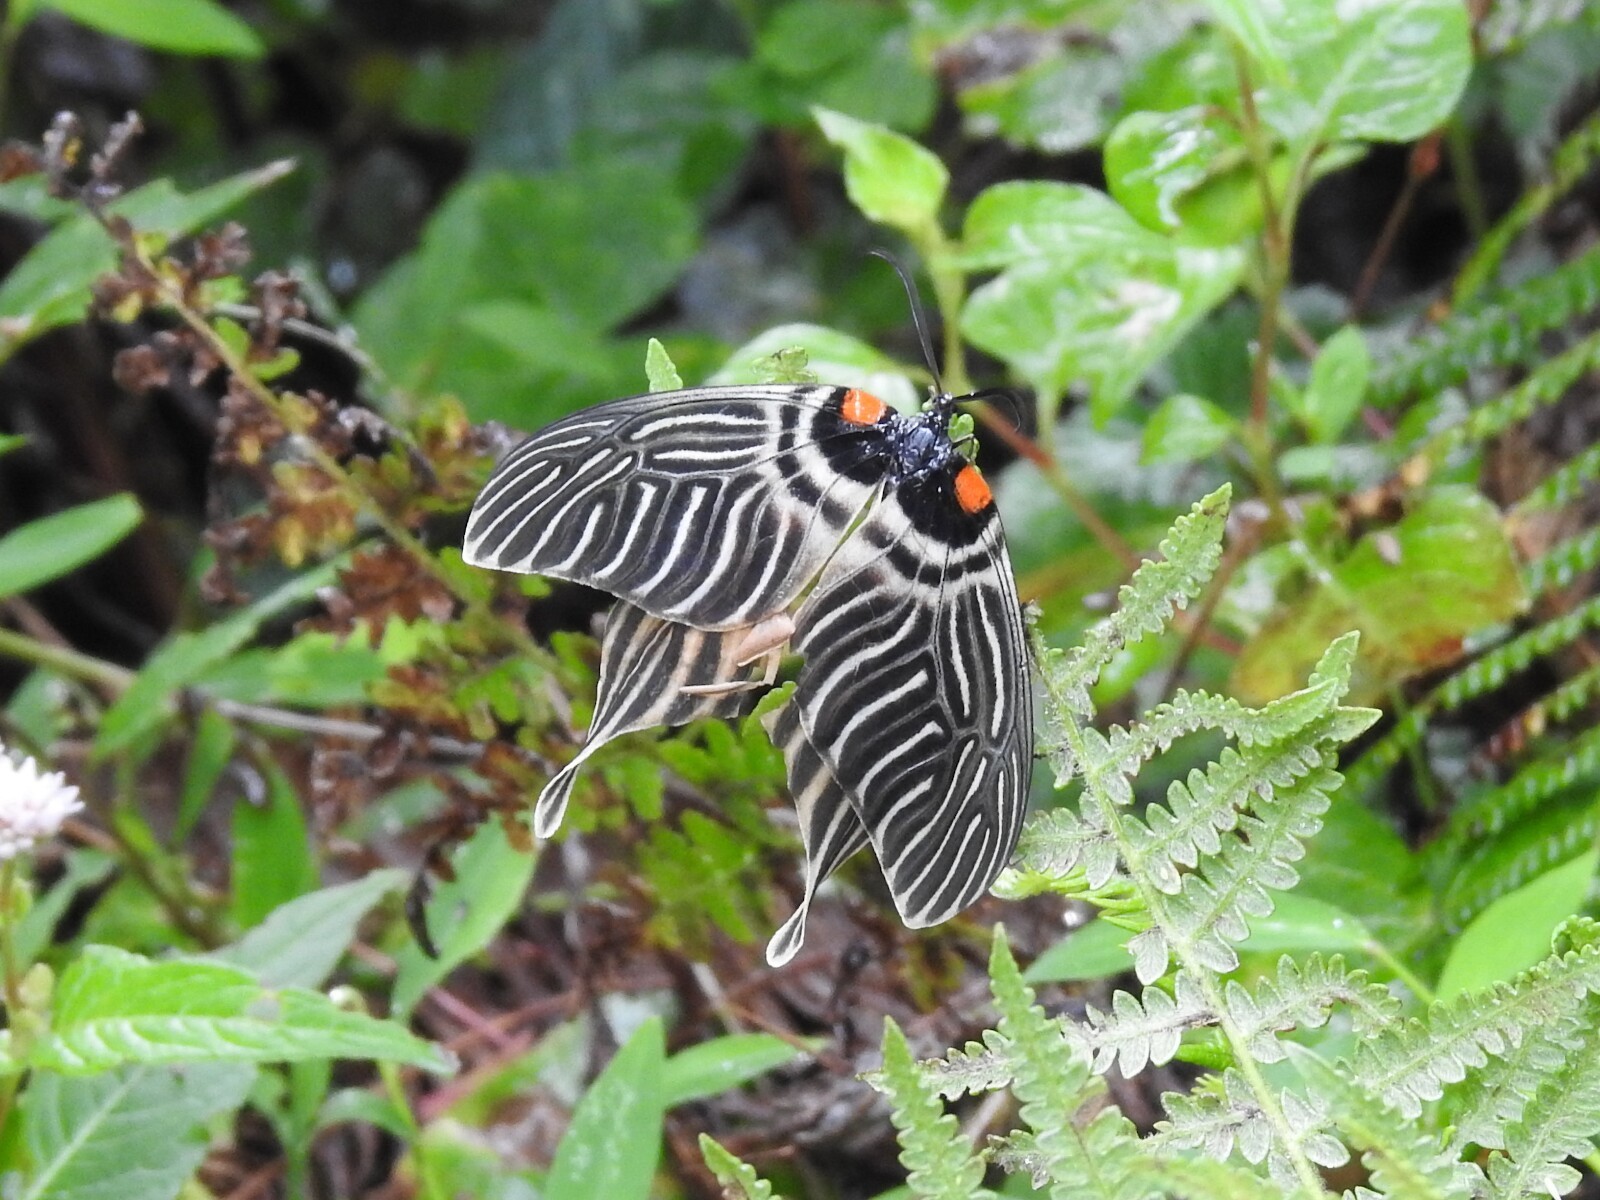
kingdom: Animalia
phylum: Arthropoda
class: Insecta
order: Lepidoptera
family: Zygaenidae
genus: Elcysma
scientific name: Elcysma ziroensis
